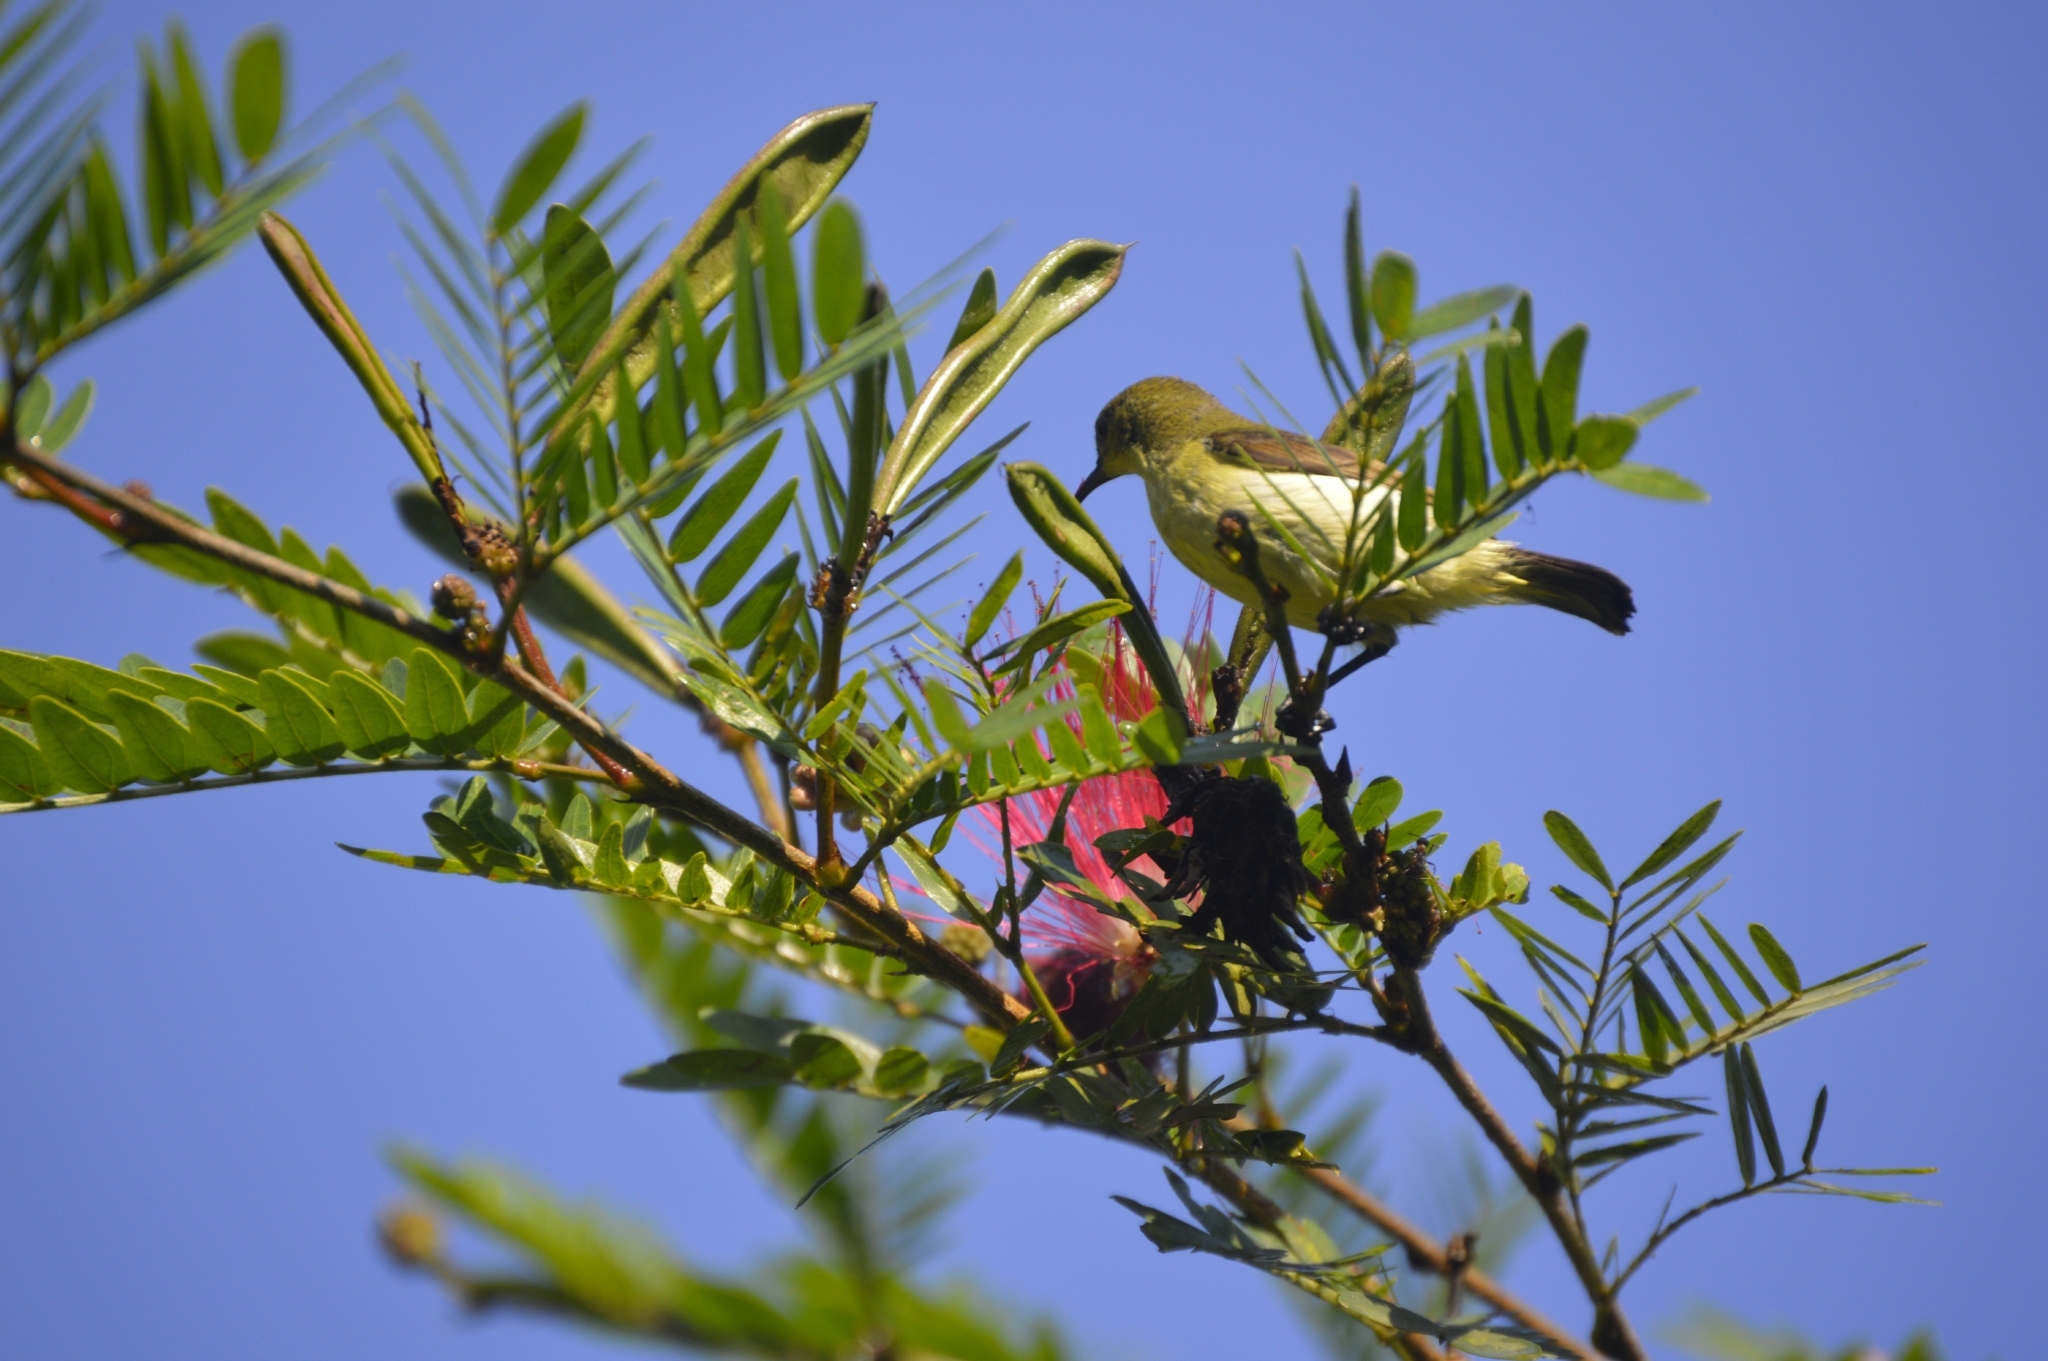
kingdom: Animalia
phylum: Chordata
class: Aves
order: Passeriformes
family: Nectariniidae
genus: Cinnyris
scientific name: Cinnyris asiaticus
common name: Purple sunbird
